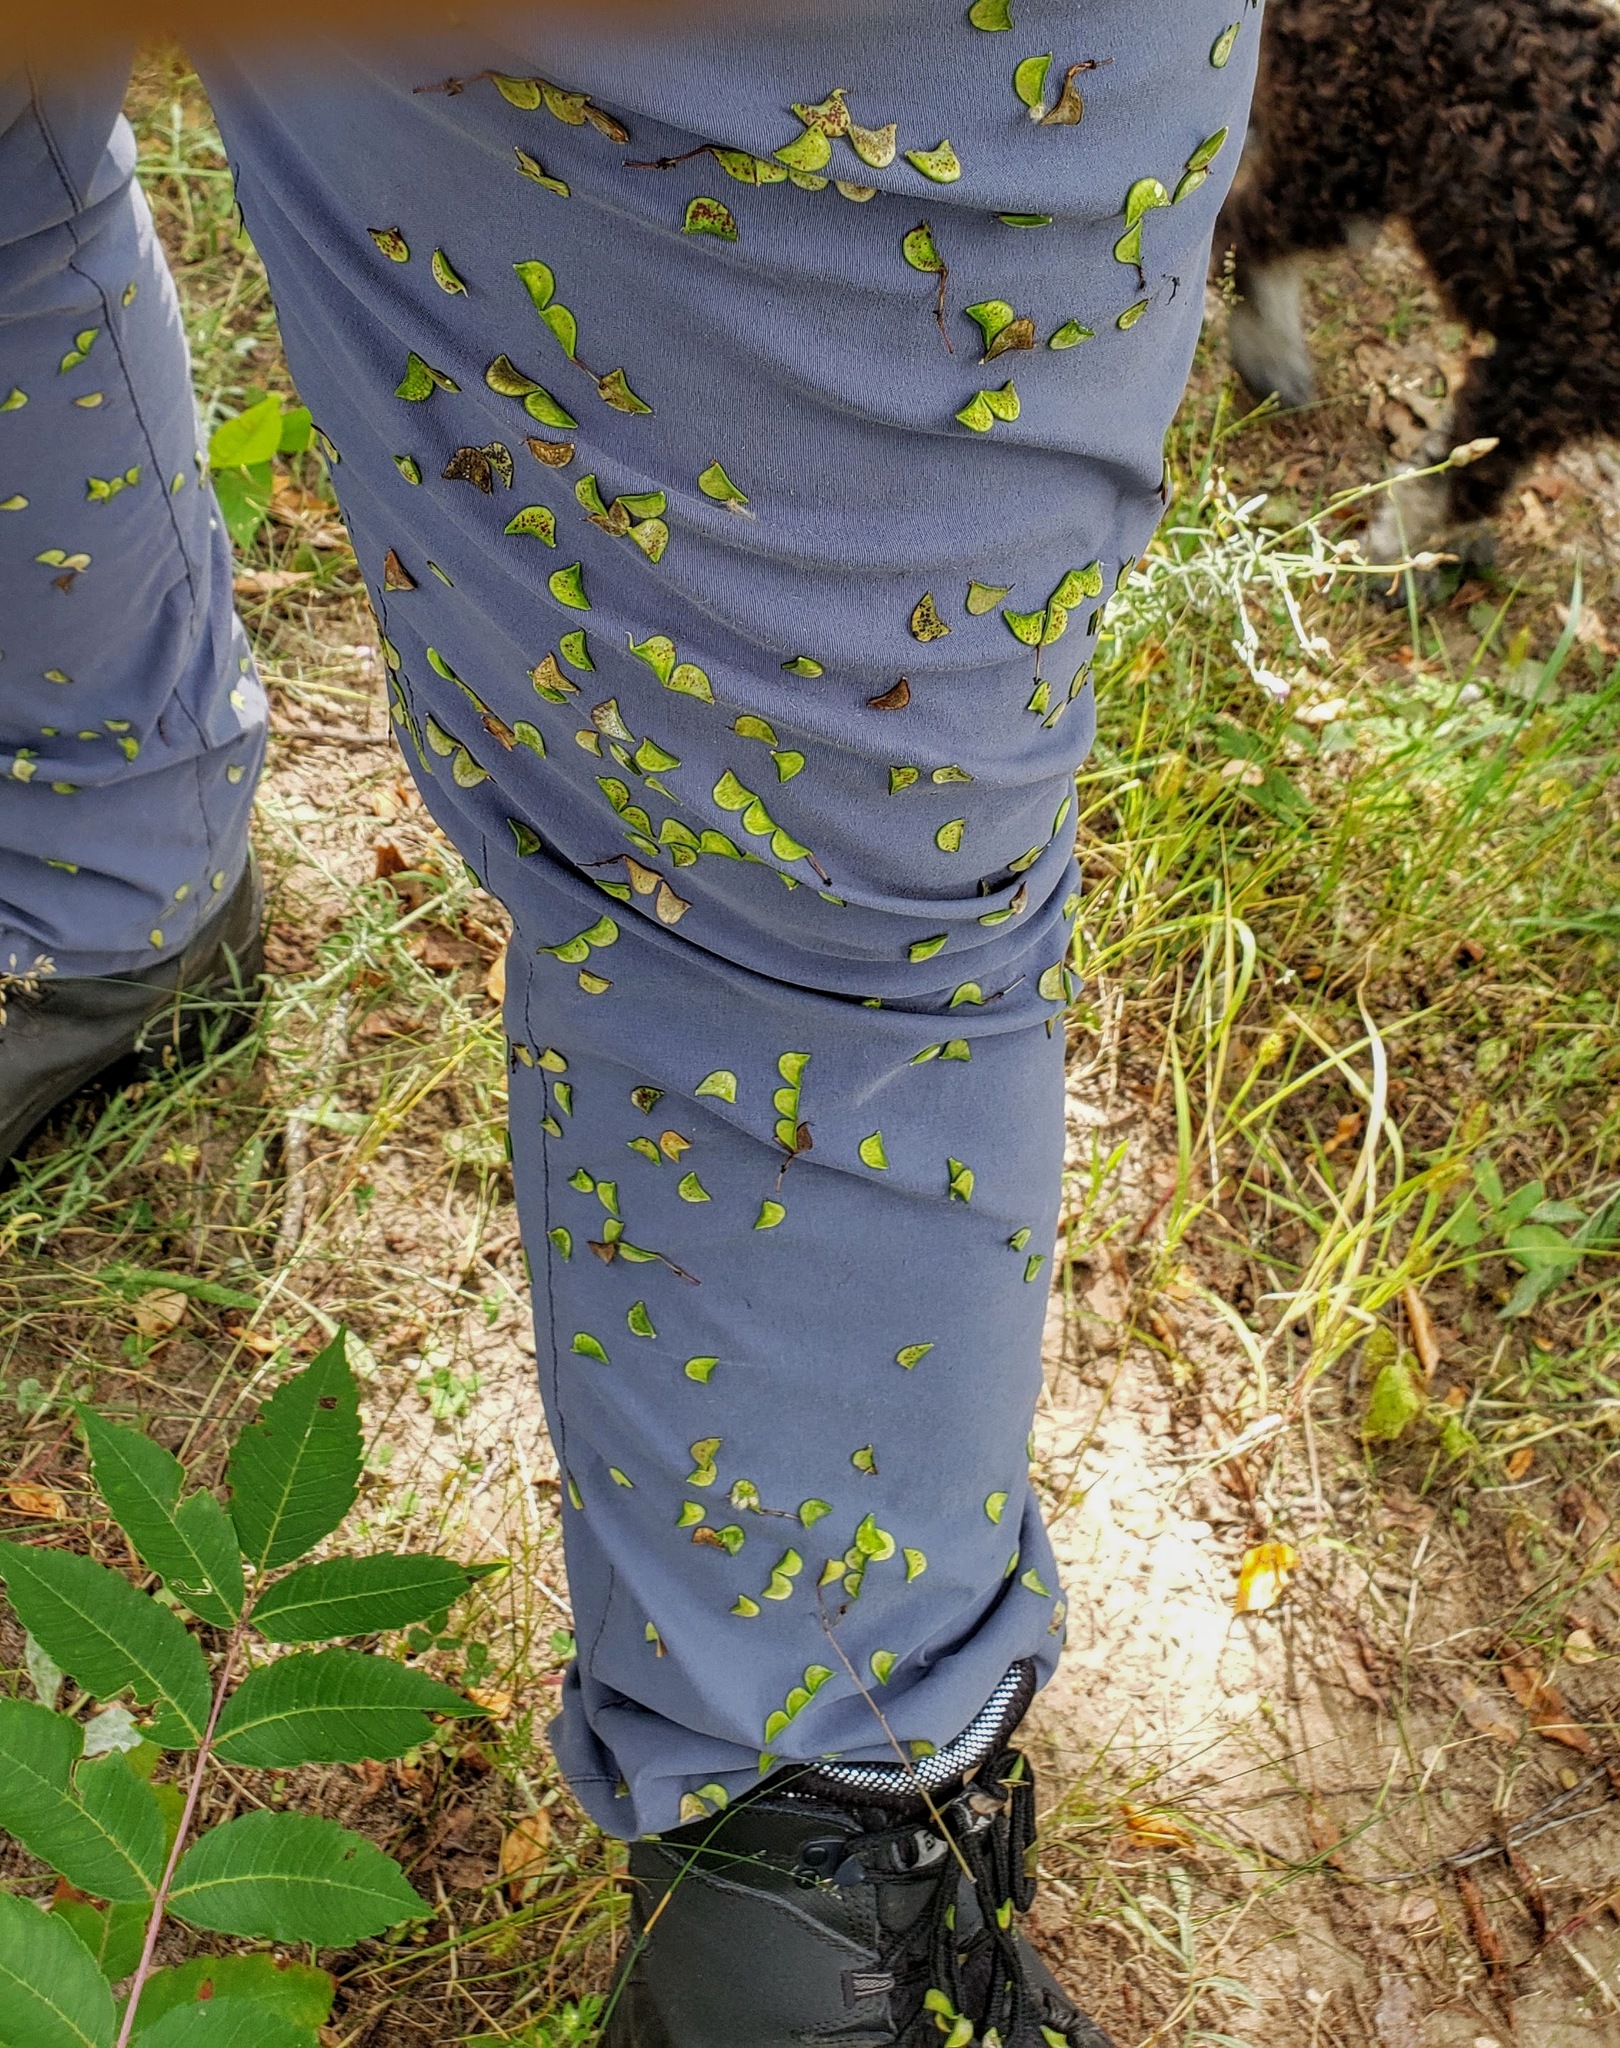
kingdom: Plantae
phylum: Tracheophyta
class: Magnoliopsida
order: Fabales
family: Fabaceae
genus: Hylodesmum
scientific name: Hylodesmum glutinosum
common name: Clustered-leaved tick-trefoil
